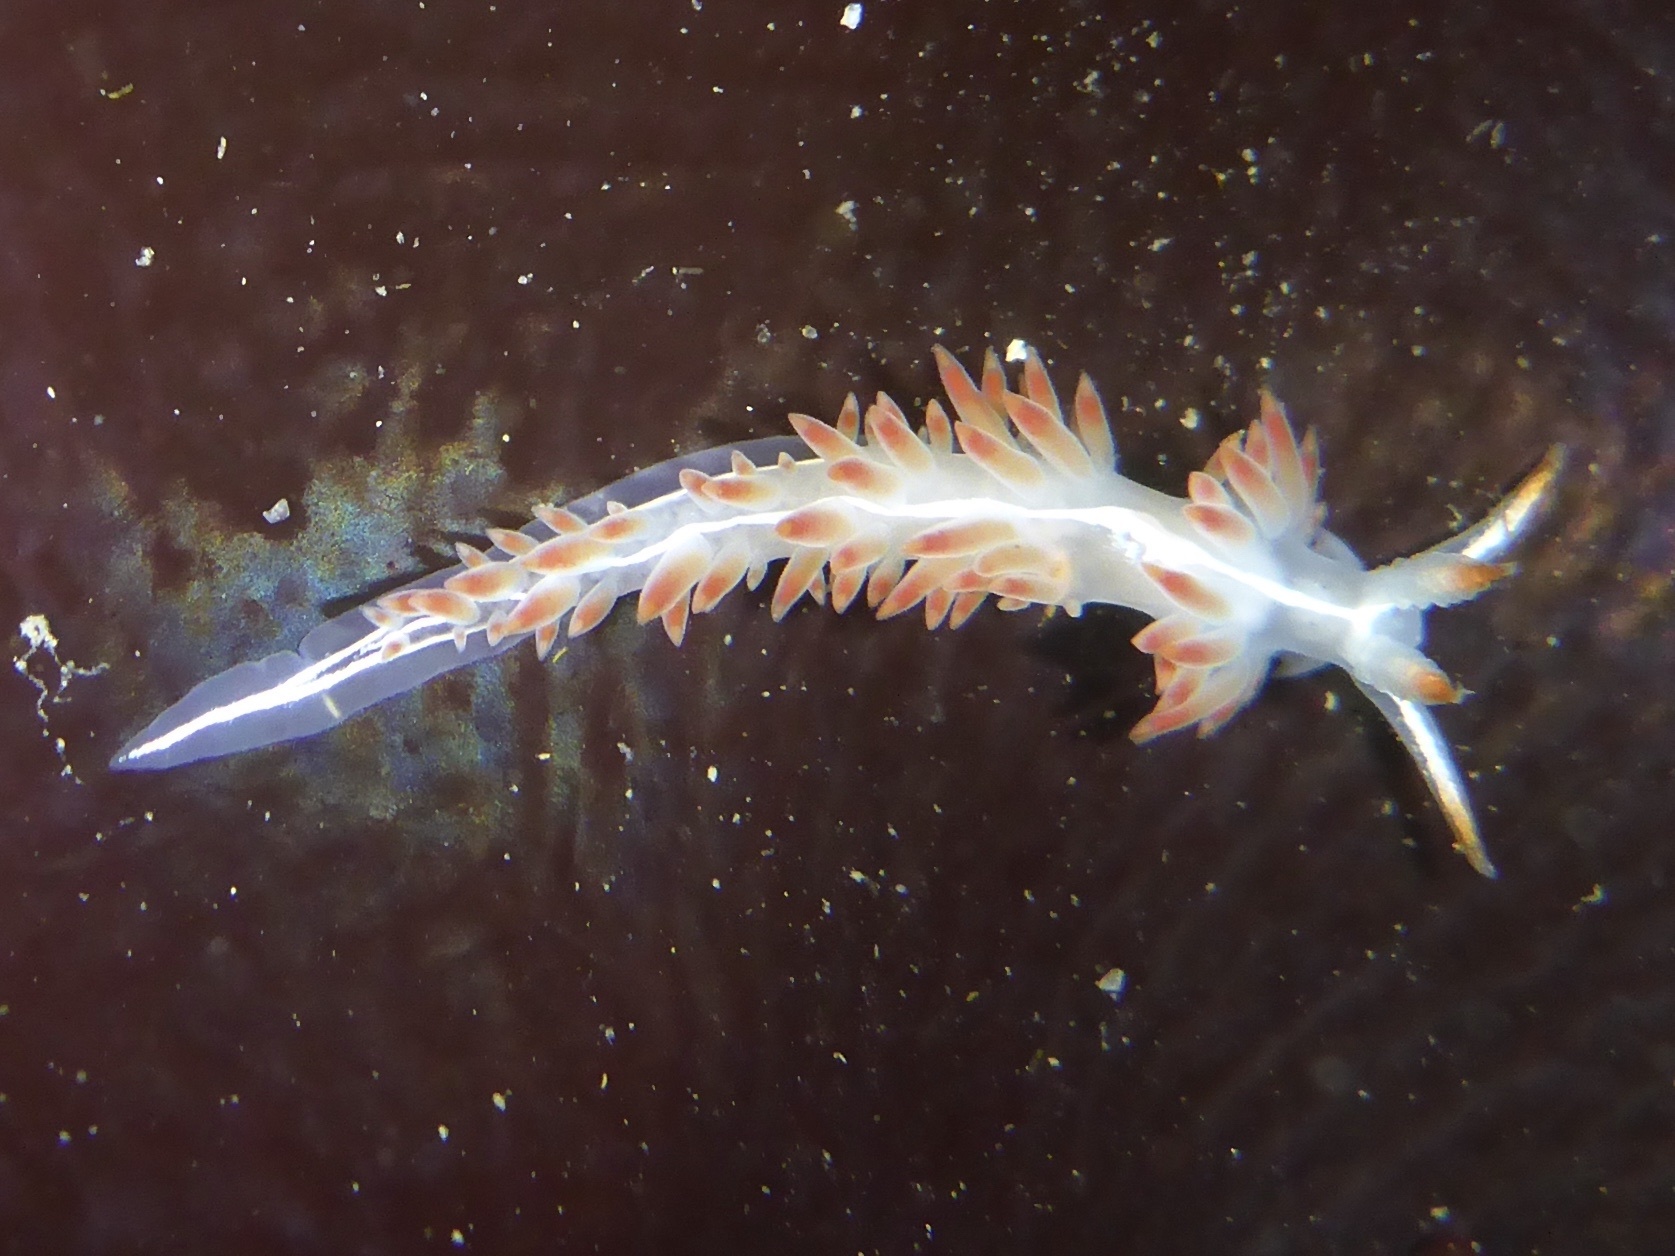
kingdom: Animalia
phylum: Mollusca
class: Gastropoda
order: Nudibranchia
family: Coryphellidae
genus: Coryphella
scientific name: Coryphella trilineata
